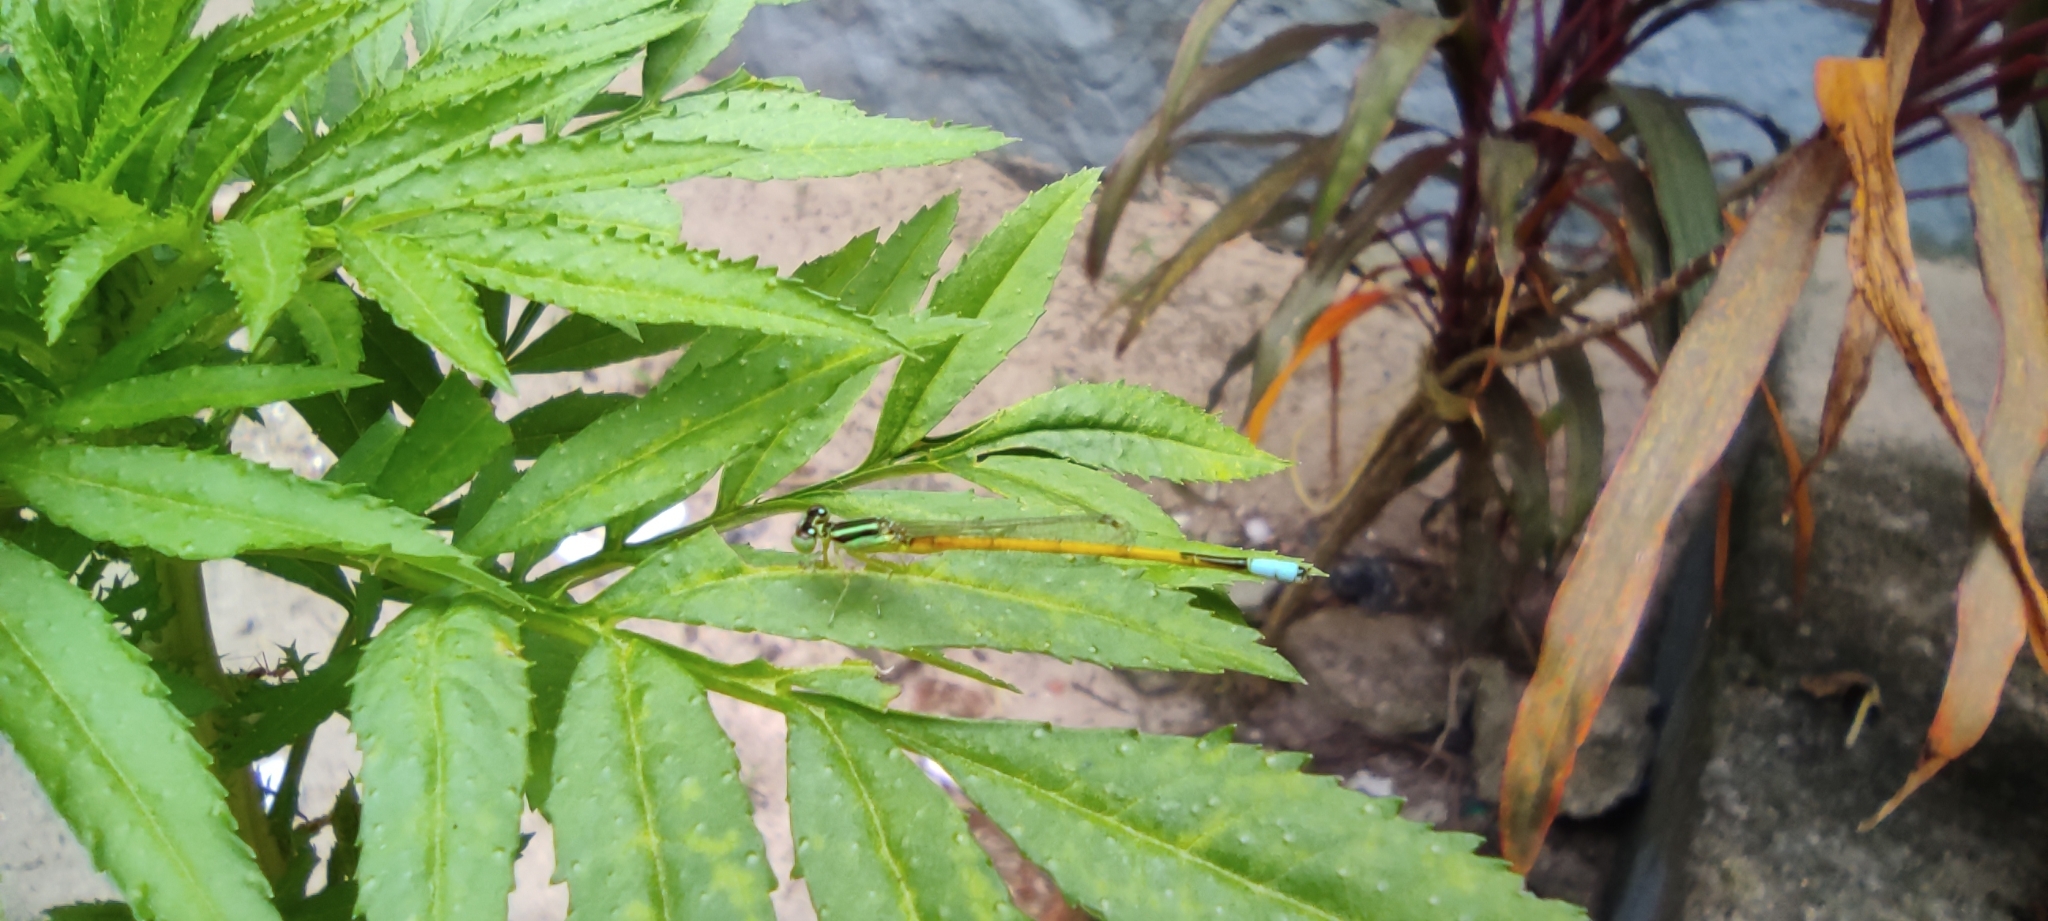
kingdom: Animalia
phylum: Arthropoda
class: Insecta
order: Odonata
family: Coenagrionidae
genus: Ischnura
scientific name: Ischnura rubilio
